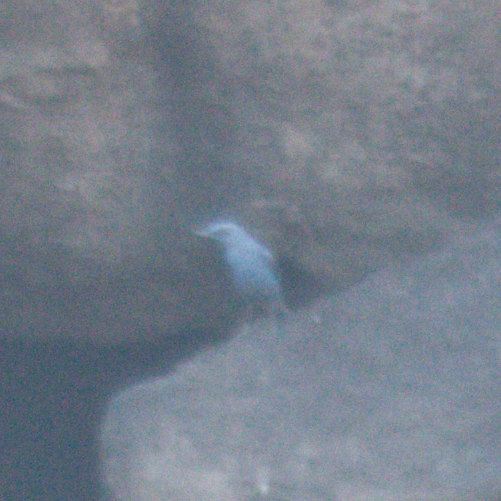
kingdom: Animalia
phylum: Chordata
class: Aves
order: Passeriformes
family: Muscicapidae
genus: Monticola
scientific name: Monticola solitarius
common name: Blue rock thrush
